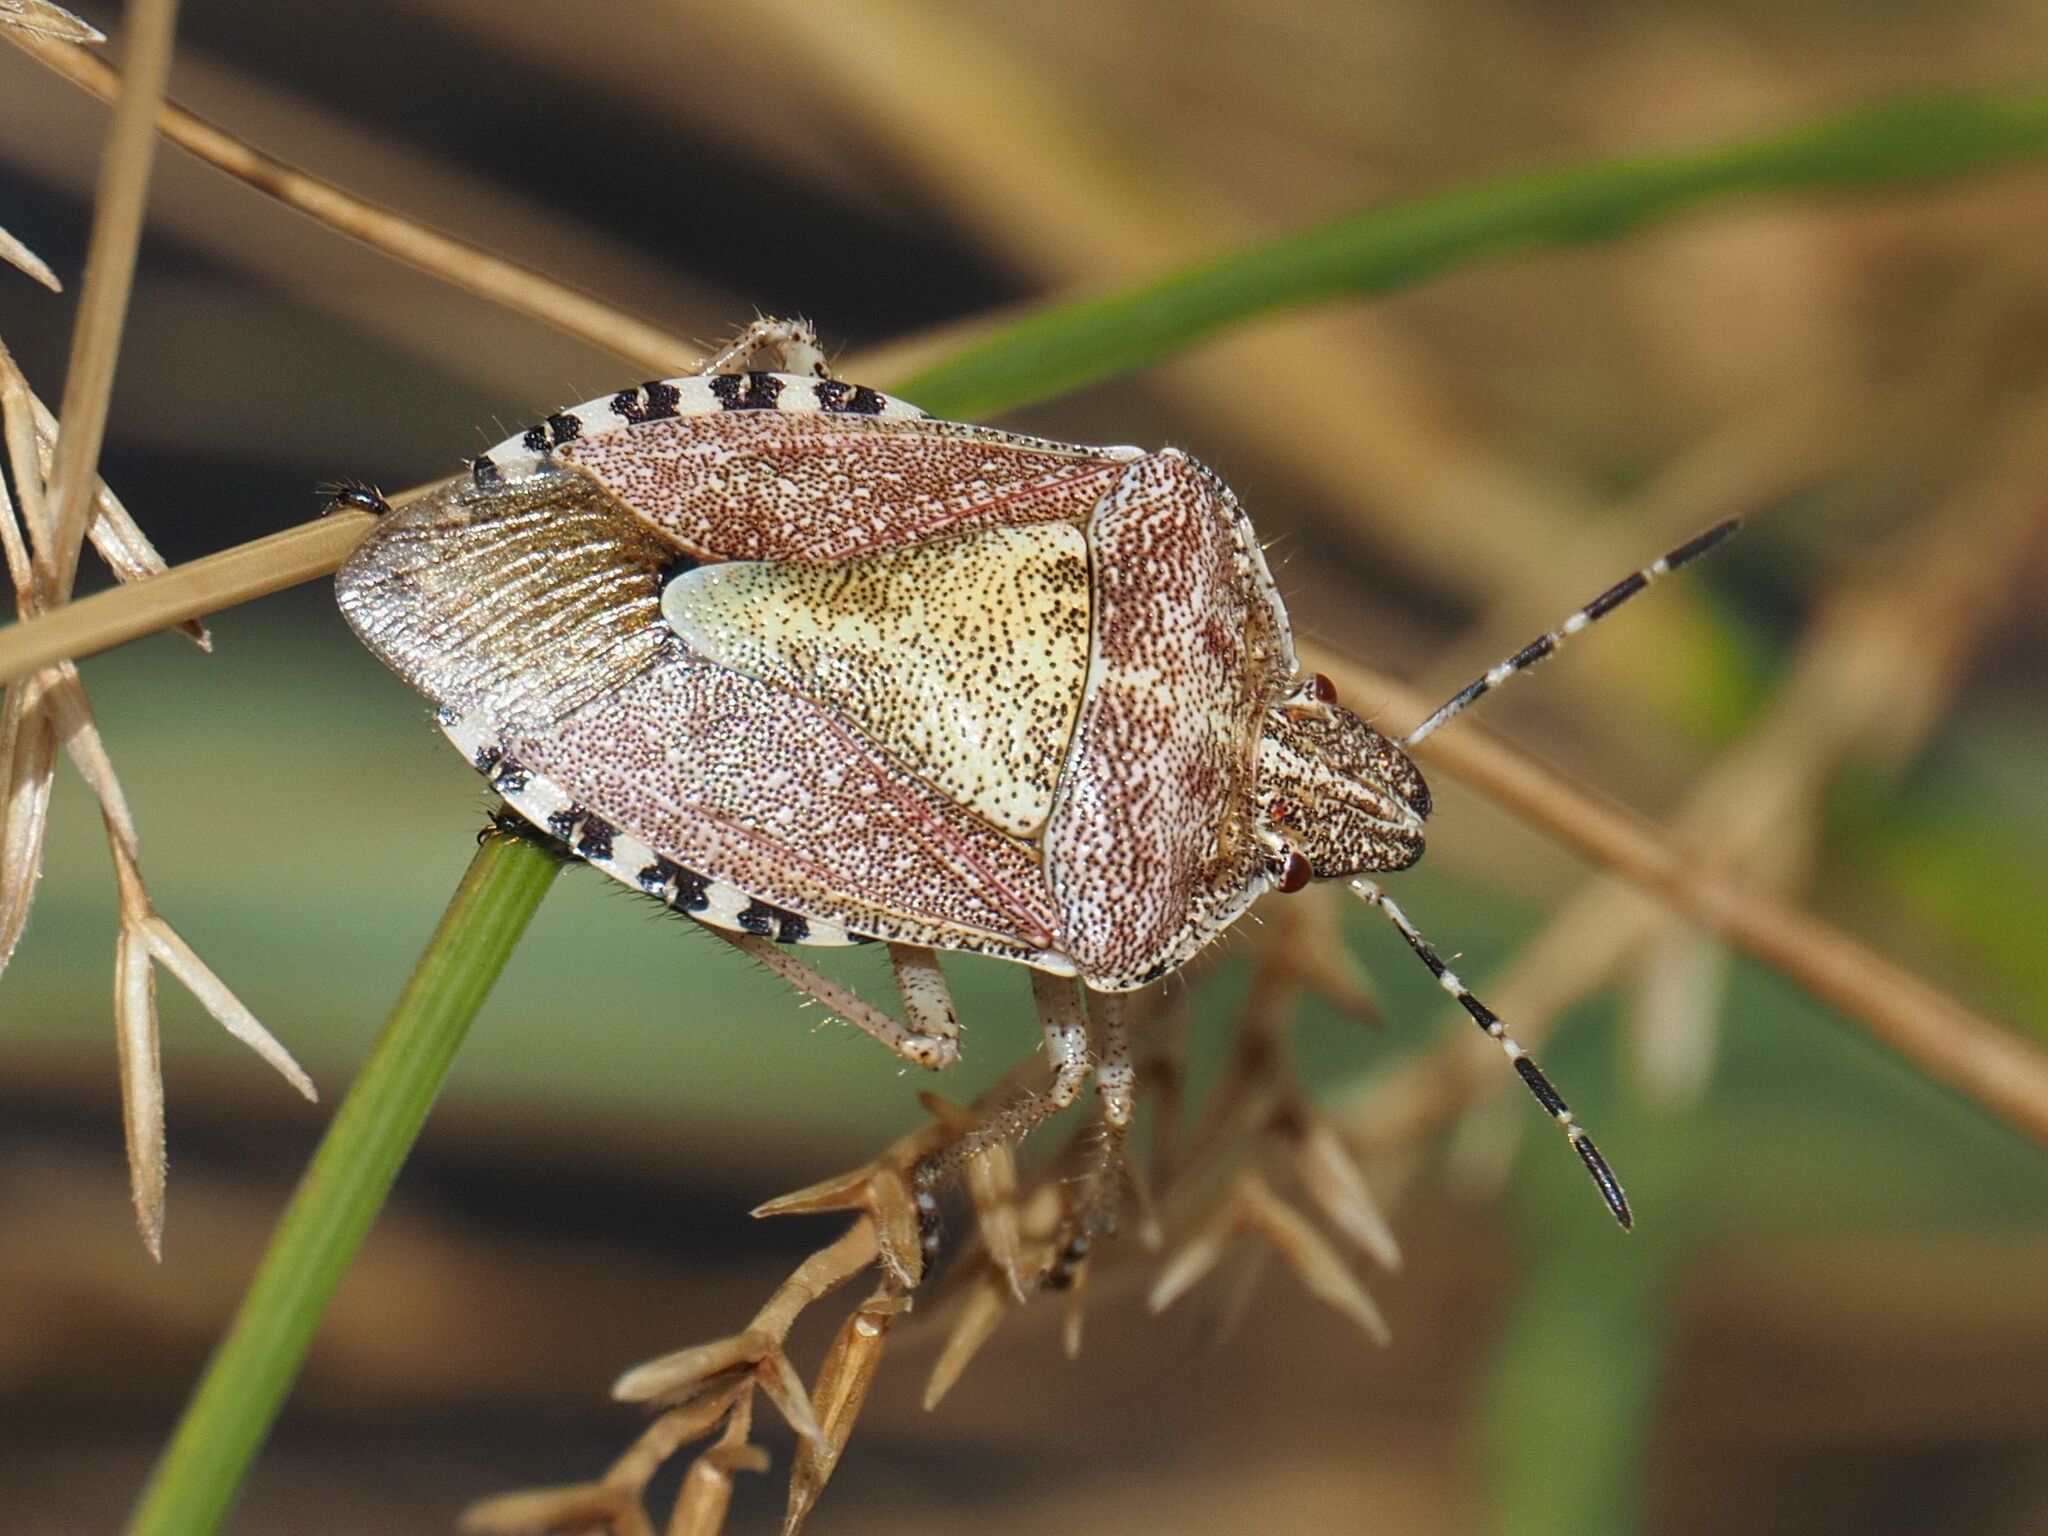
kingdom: Animalia
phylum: Arthropoda
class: Insecta
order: Hemiptera
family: Pentatomidae
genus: Dolycoris
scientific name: Dolycoris baccarum
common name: Sloe bug
